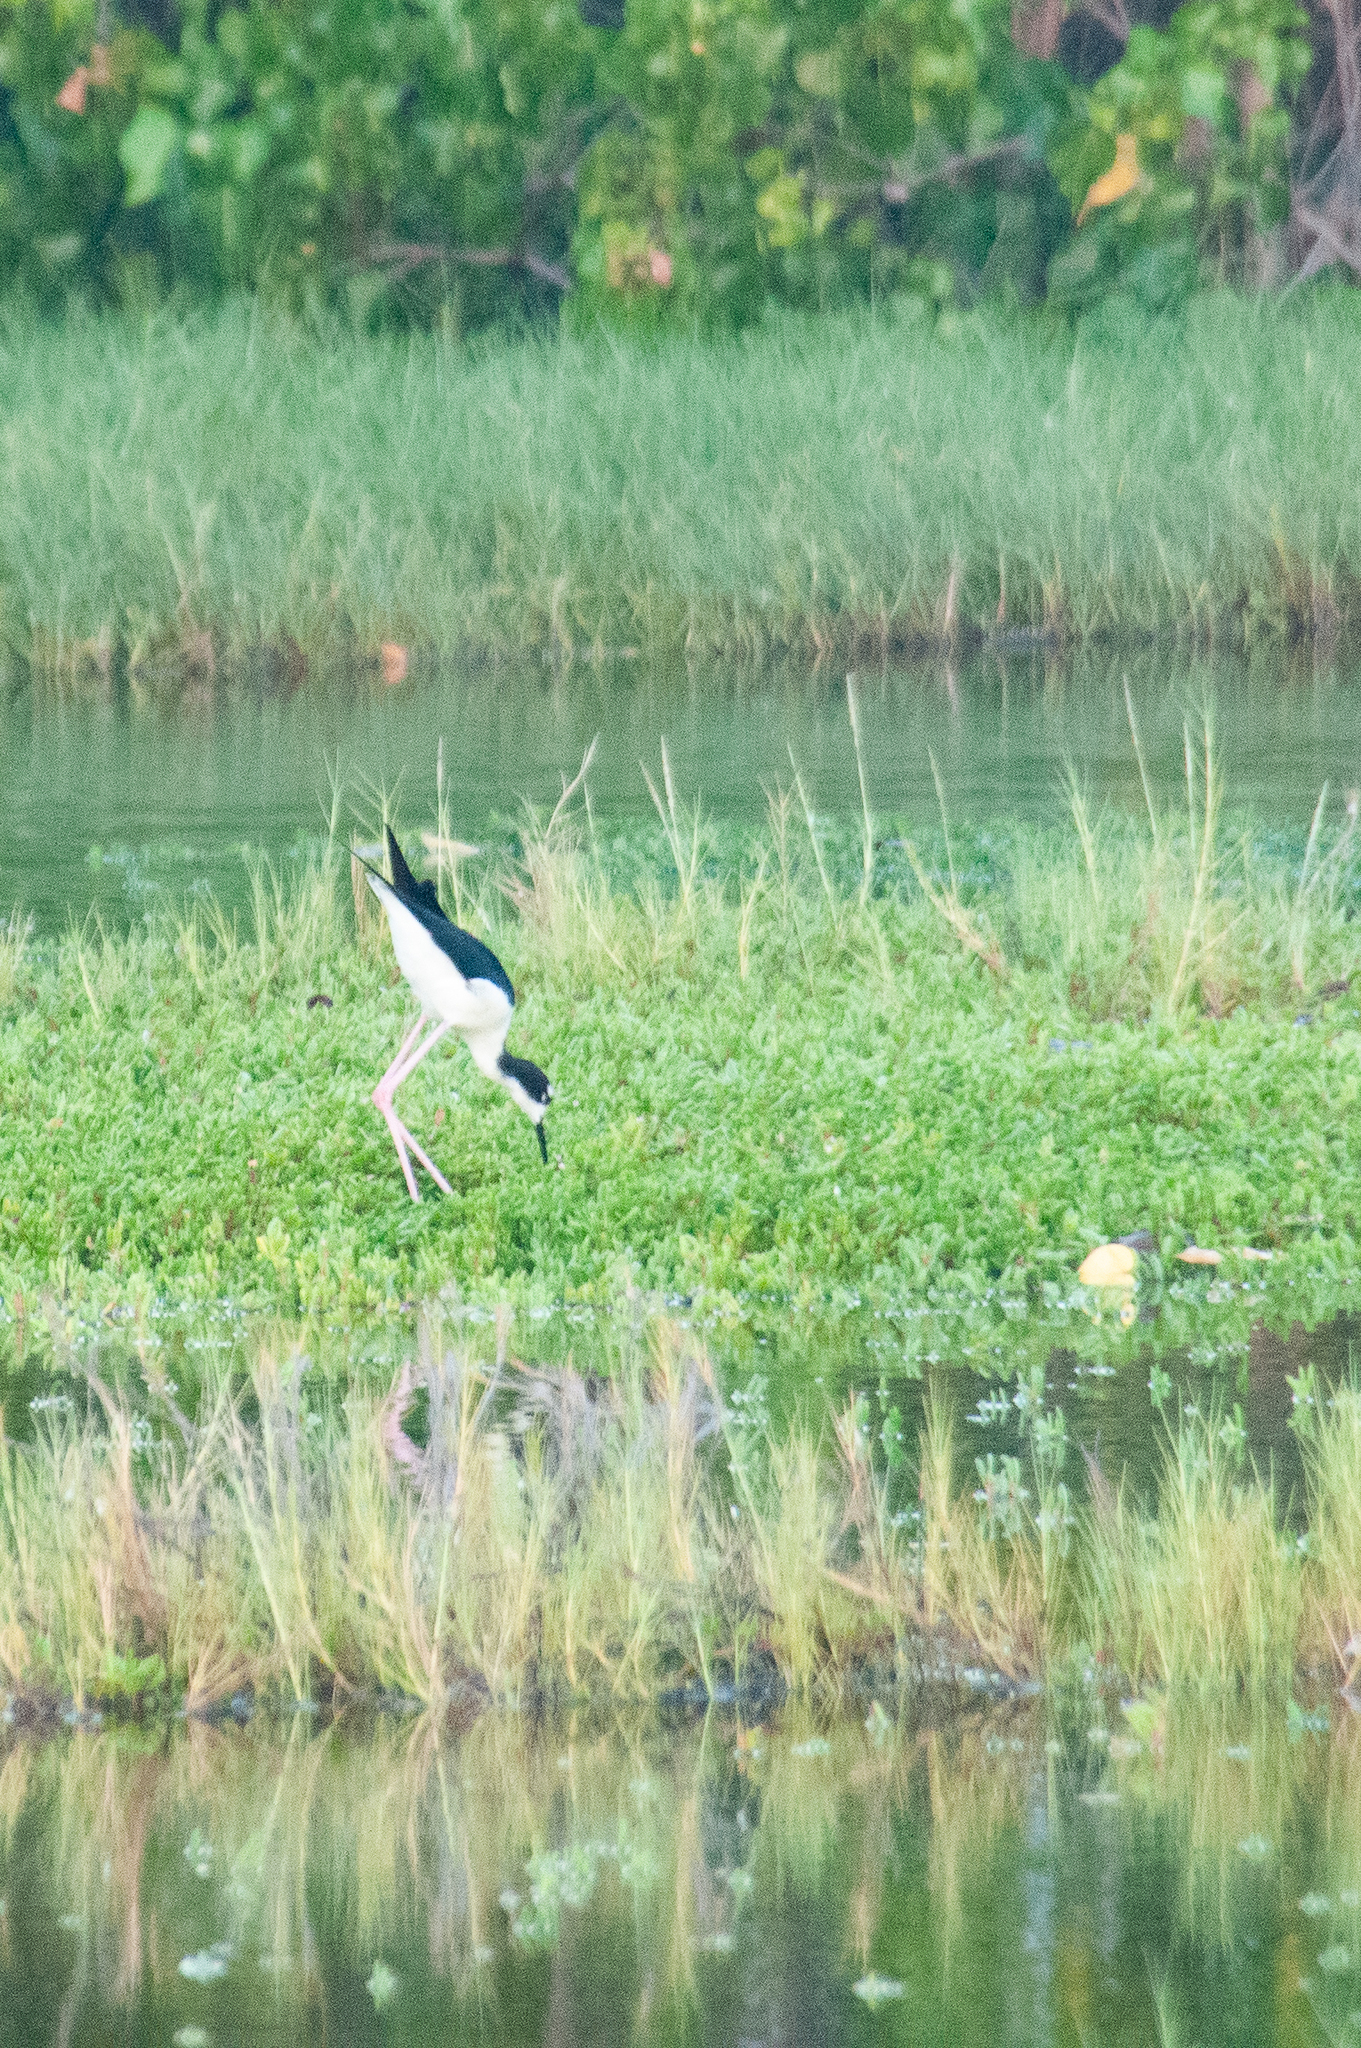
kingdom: Animalia
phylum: Chordata
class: Aves
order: Charadriiformes
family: Recurvirostridae
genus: Himantopus
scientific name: Himantopus mexicanus
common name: Black-necked stilt
